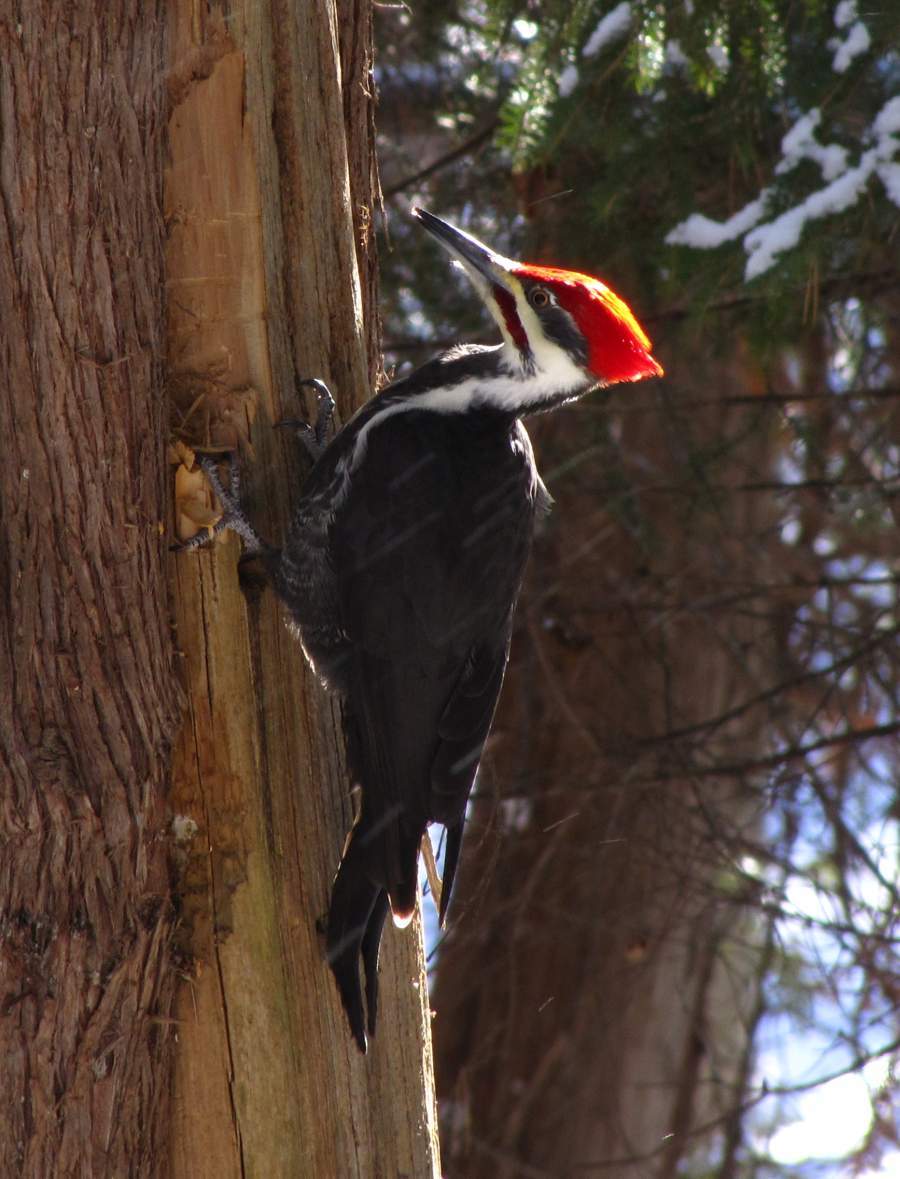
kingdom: Animalia
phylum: Chordata
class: Aves
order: Piciformes
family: Picidae
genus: Dryocopus
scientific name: Dryocopus pileatus
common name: Pileated woodpecker
